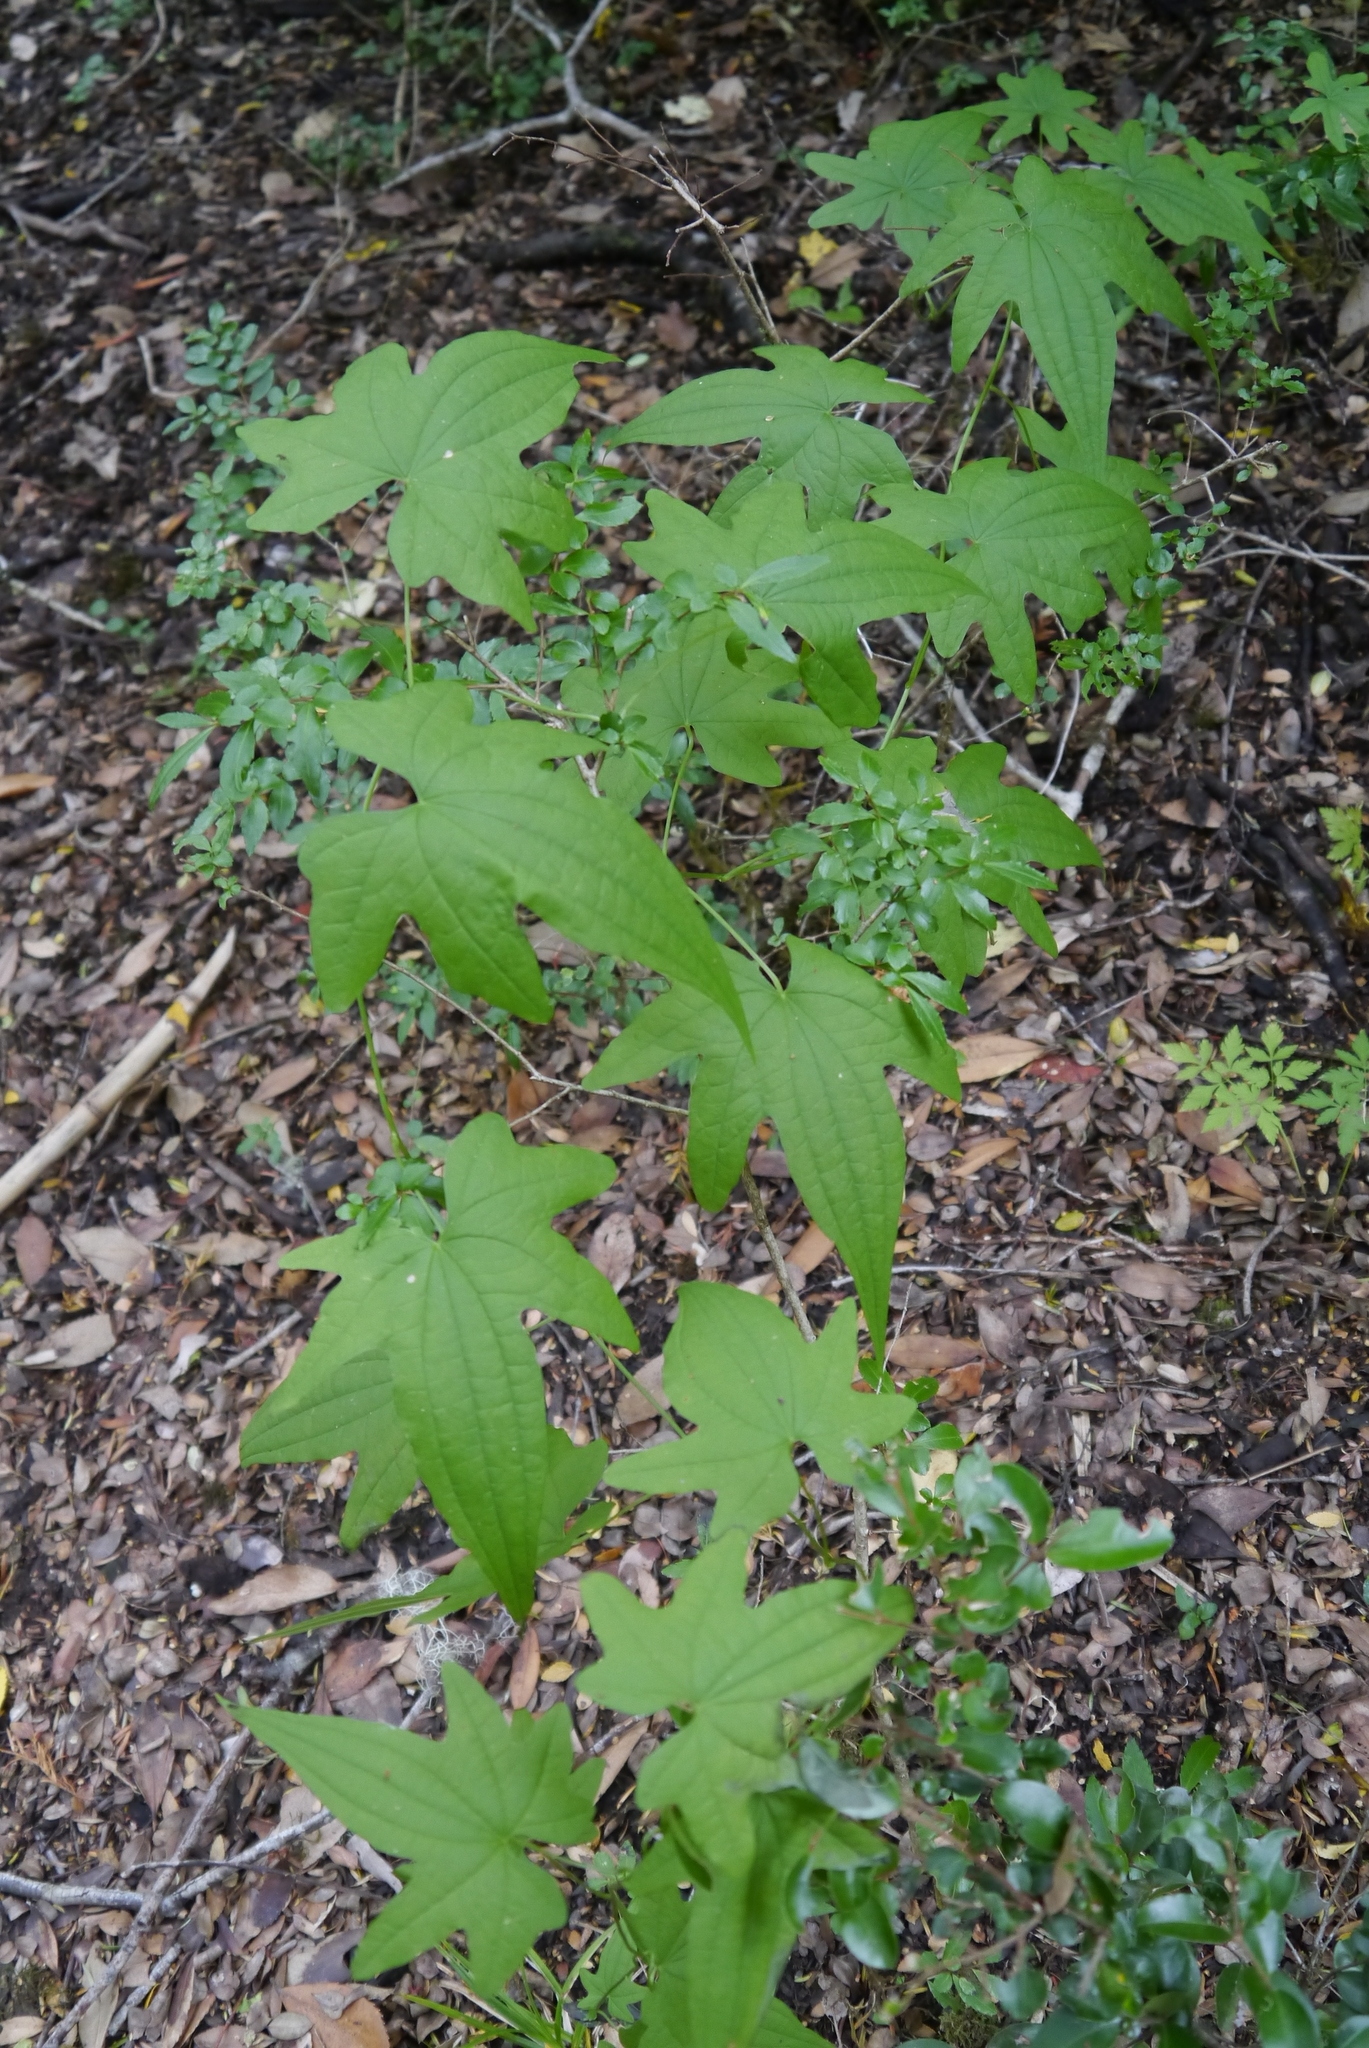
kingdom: Plantae
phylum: Tracheophyta
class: Liliopsida
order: Dioscoreales
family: Dioscoreaceae
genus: Dioscorea
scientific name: Dioscorea brachybotrya
